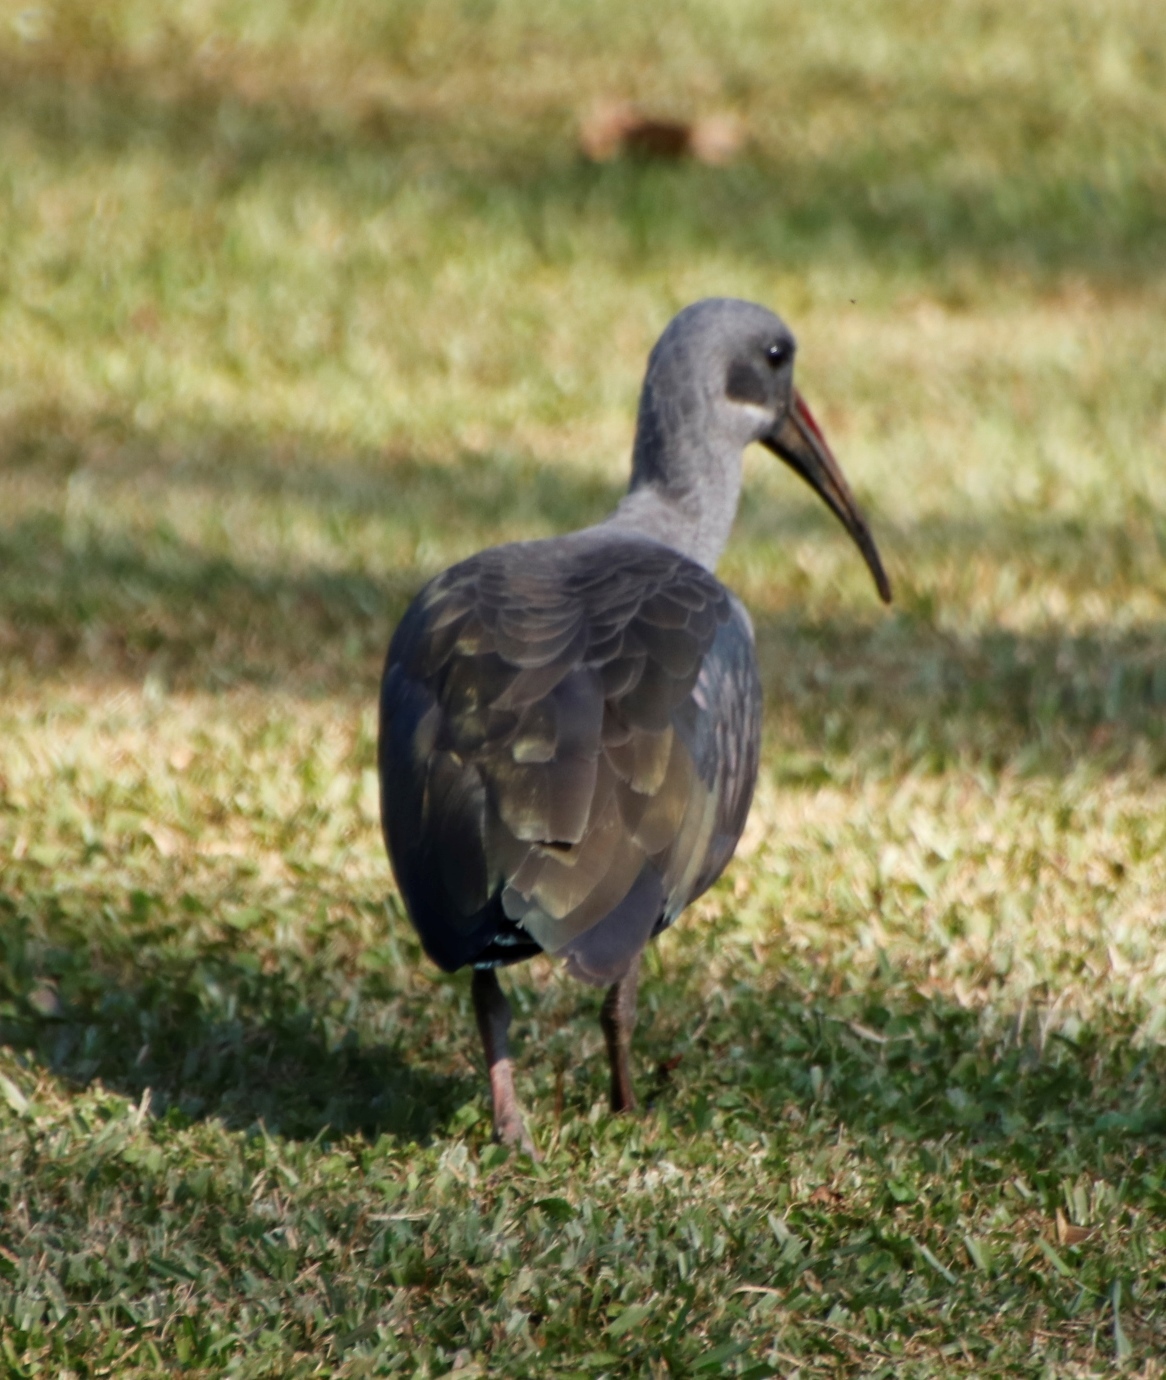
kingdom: Animalia
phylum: Chordata
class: Aves
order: Pelecaniformes
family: Threskiornithidae
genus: Bostrychia
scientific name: Bostrychia hagedash
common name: Hadada ibis
